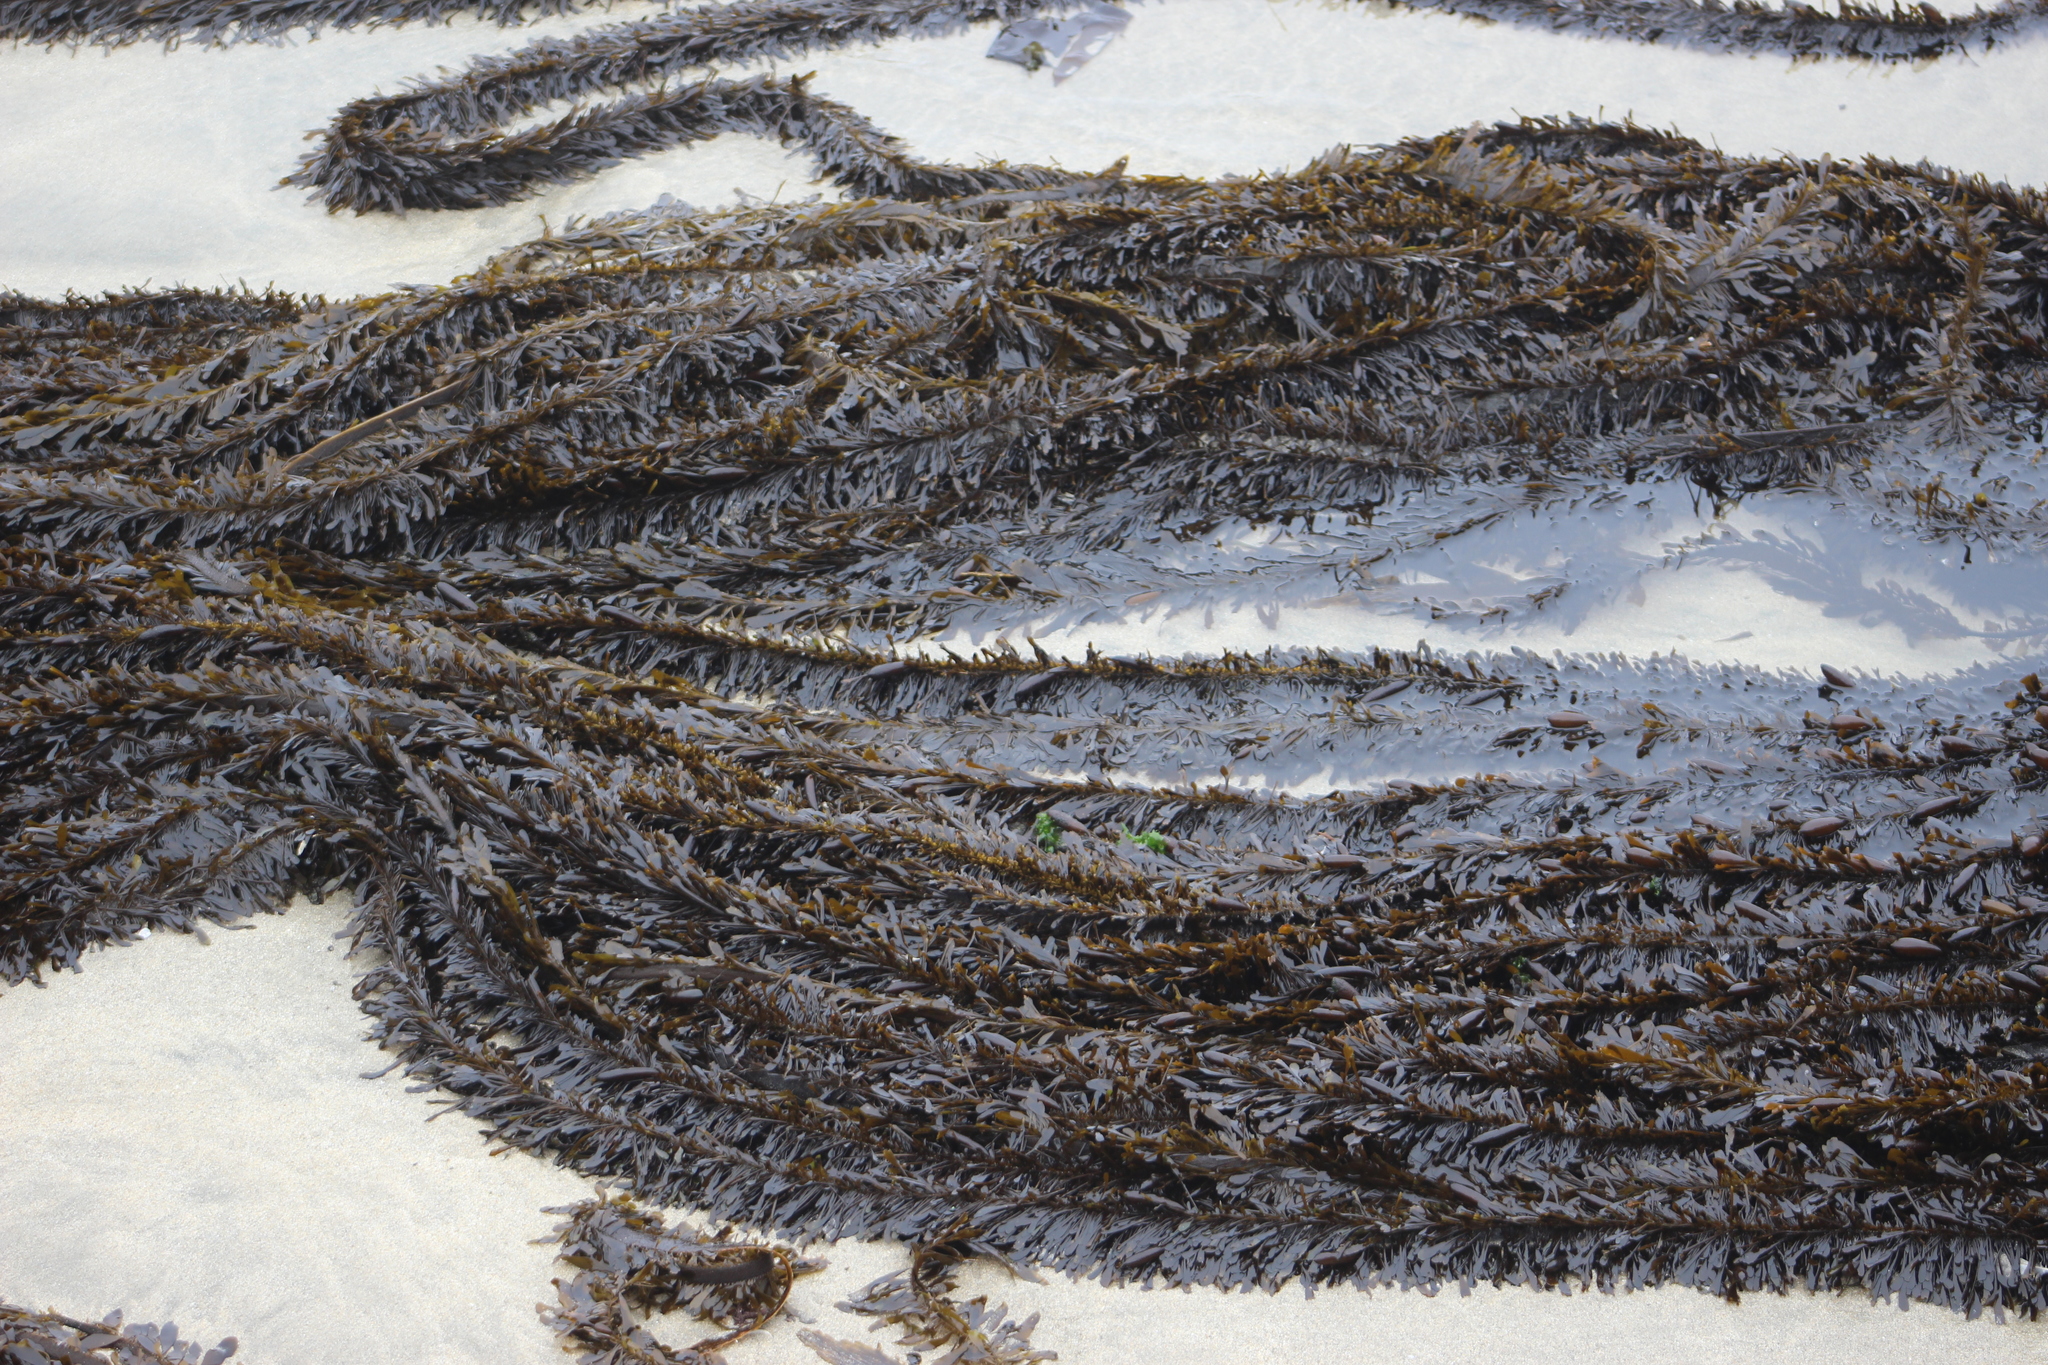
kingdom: Chromista
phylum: Ochrophyta
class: Phaeophyceae
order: Laminariales
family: Lessoniaceae
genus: Egregia
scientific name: Egregia menziesii
